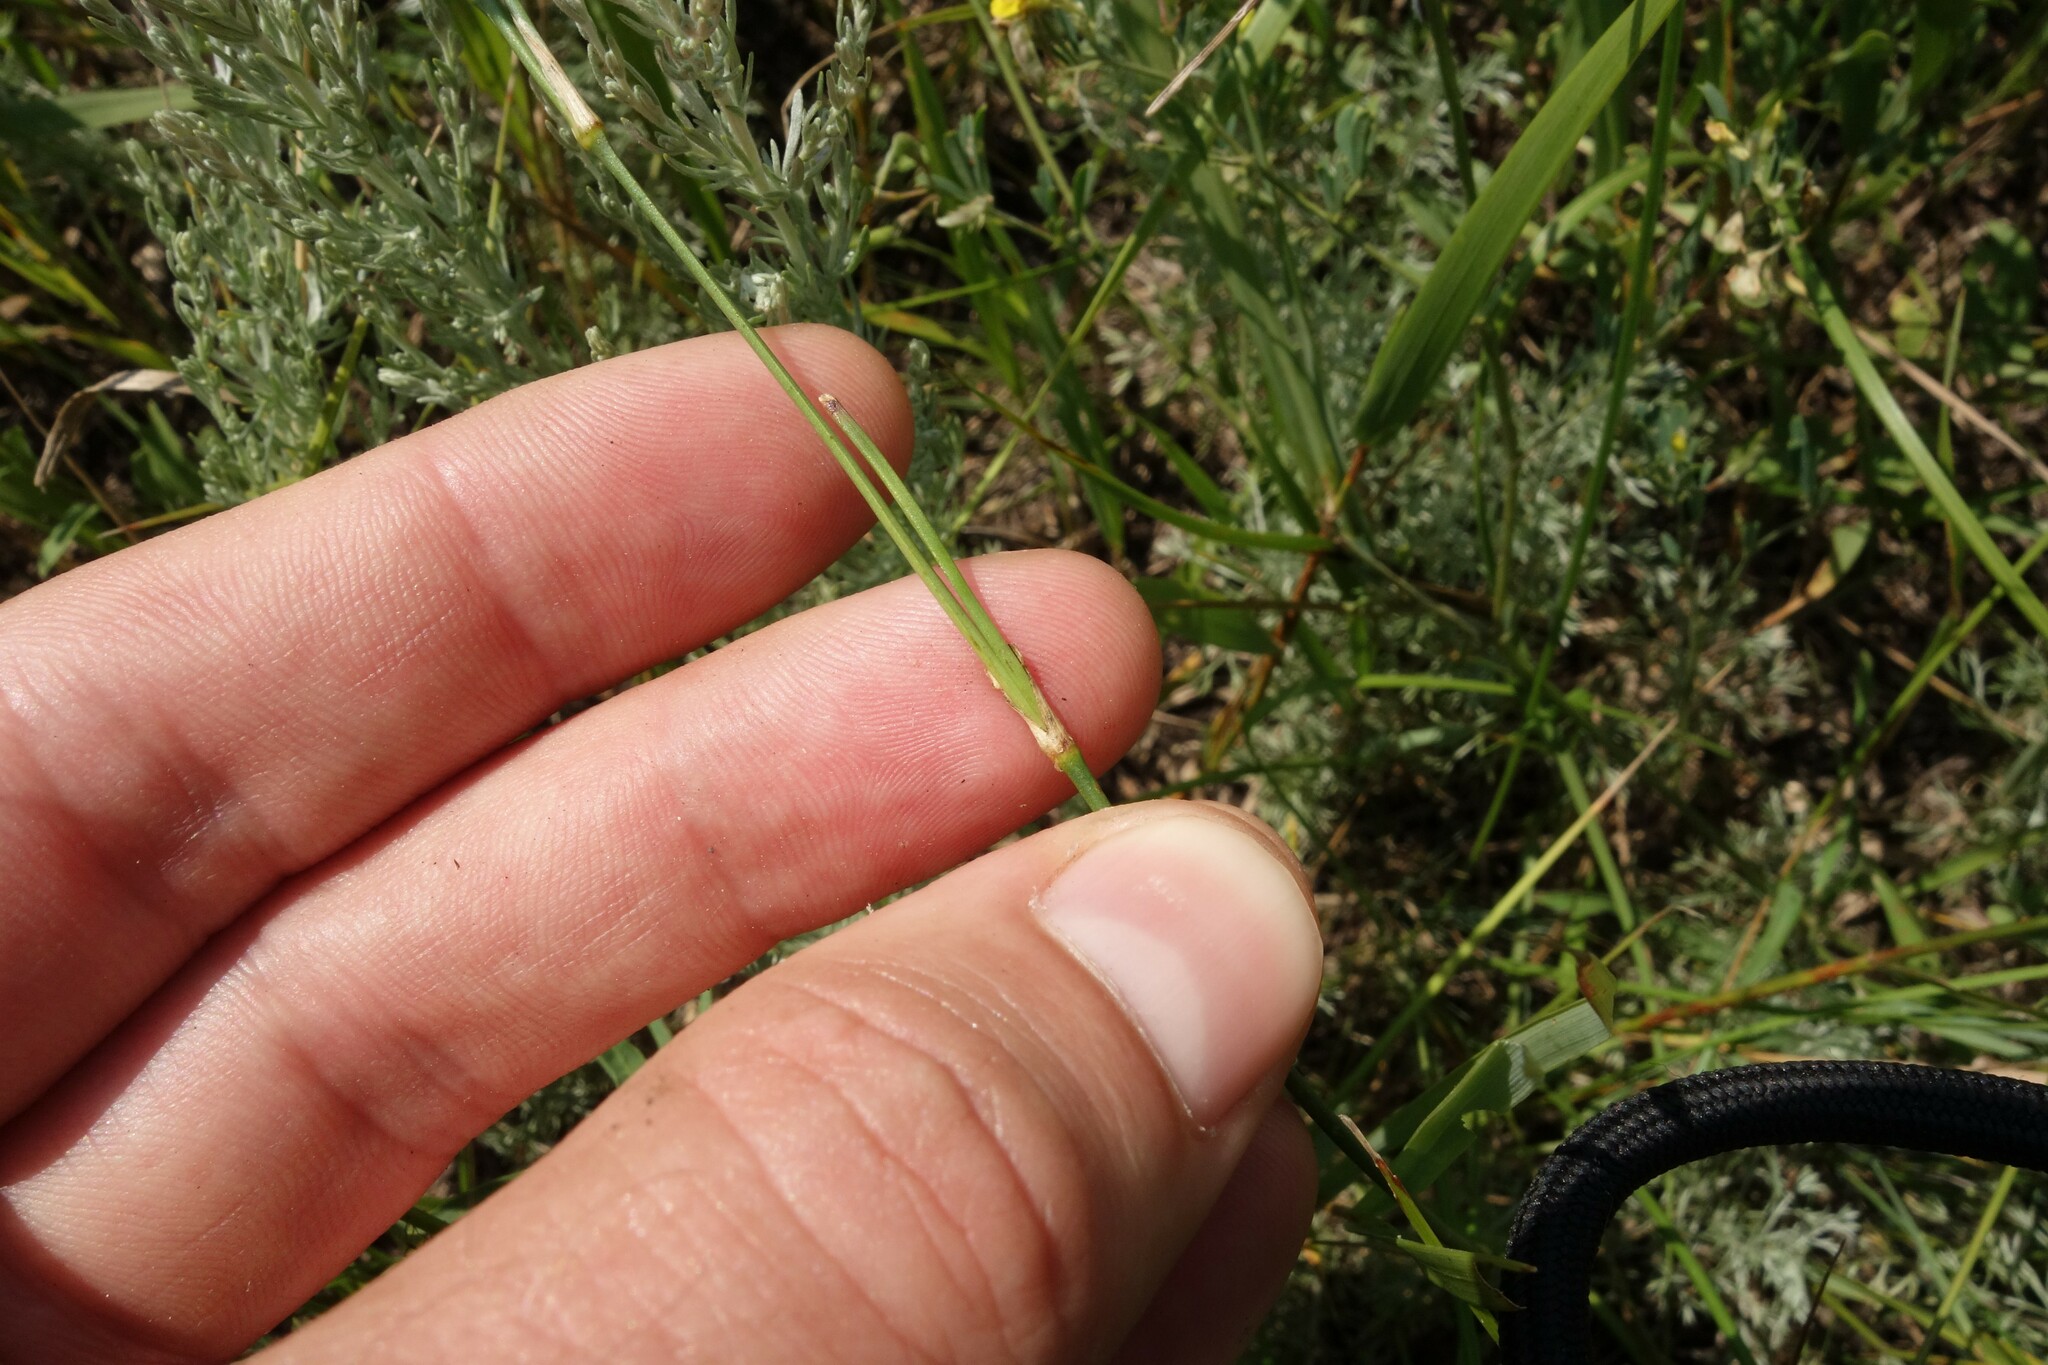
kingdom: Plantae
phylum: Tracheophyta
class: Magnoliopsida
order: Caryophyllales
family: Caryophyllaceae
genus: Dianthus
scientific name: Dianthus borbasii
